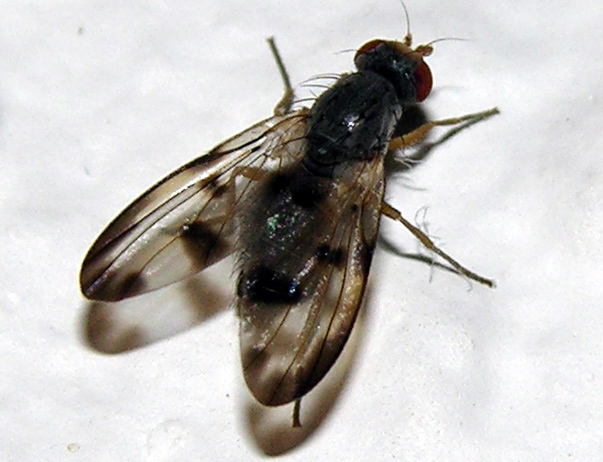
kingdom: Animalia
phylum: Arthropoda
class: Insecta
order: Diptera
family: Pallopteridae
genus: Palloptera
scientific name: Palloptera umbellatarum
